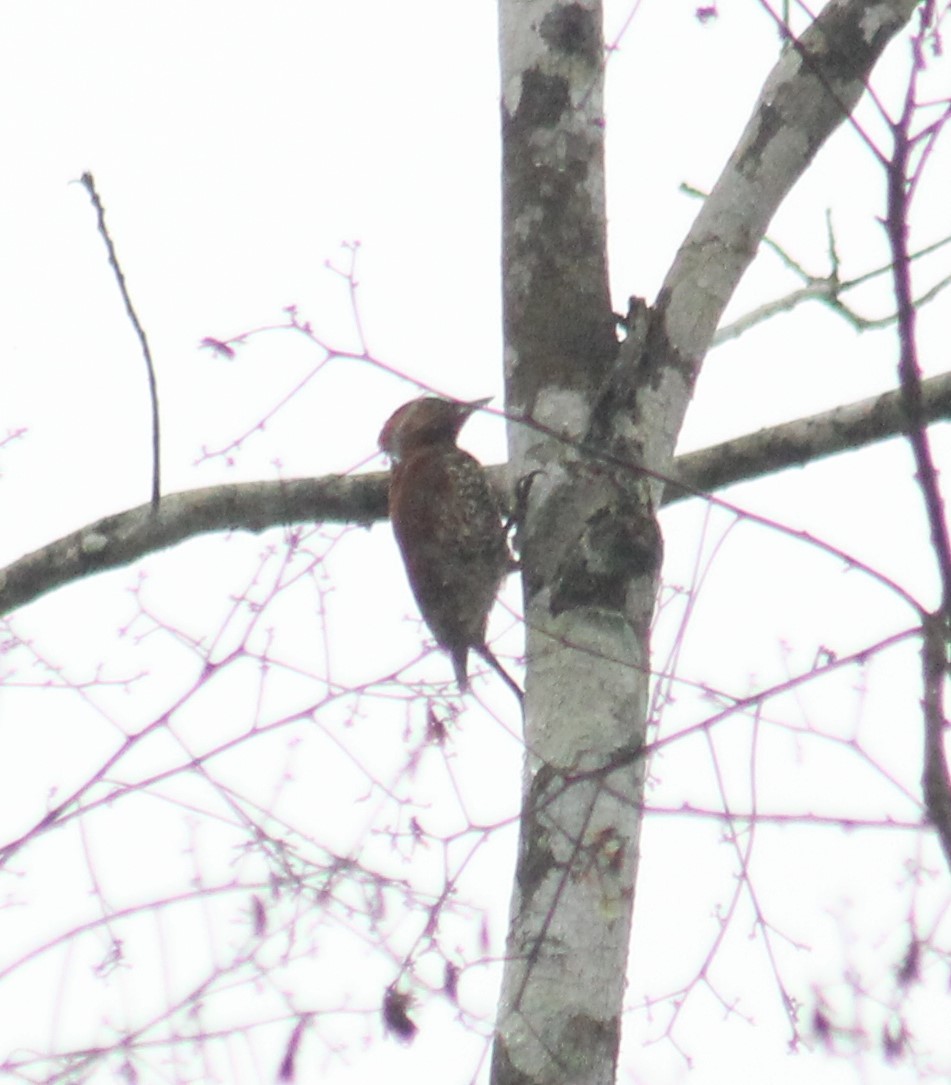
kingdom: Animalia
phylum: Chordata
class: Aves
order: Piciformes
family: Picidae
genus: Celeus
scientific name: Celeus loricatus
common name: Cinnamon woodpecker
